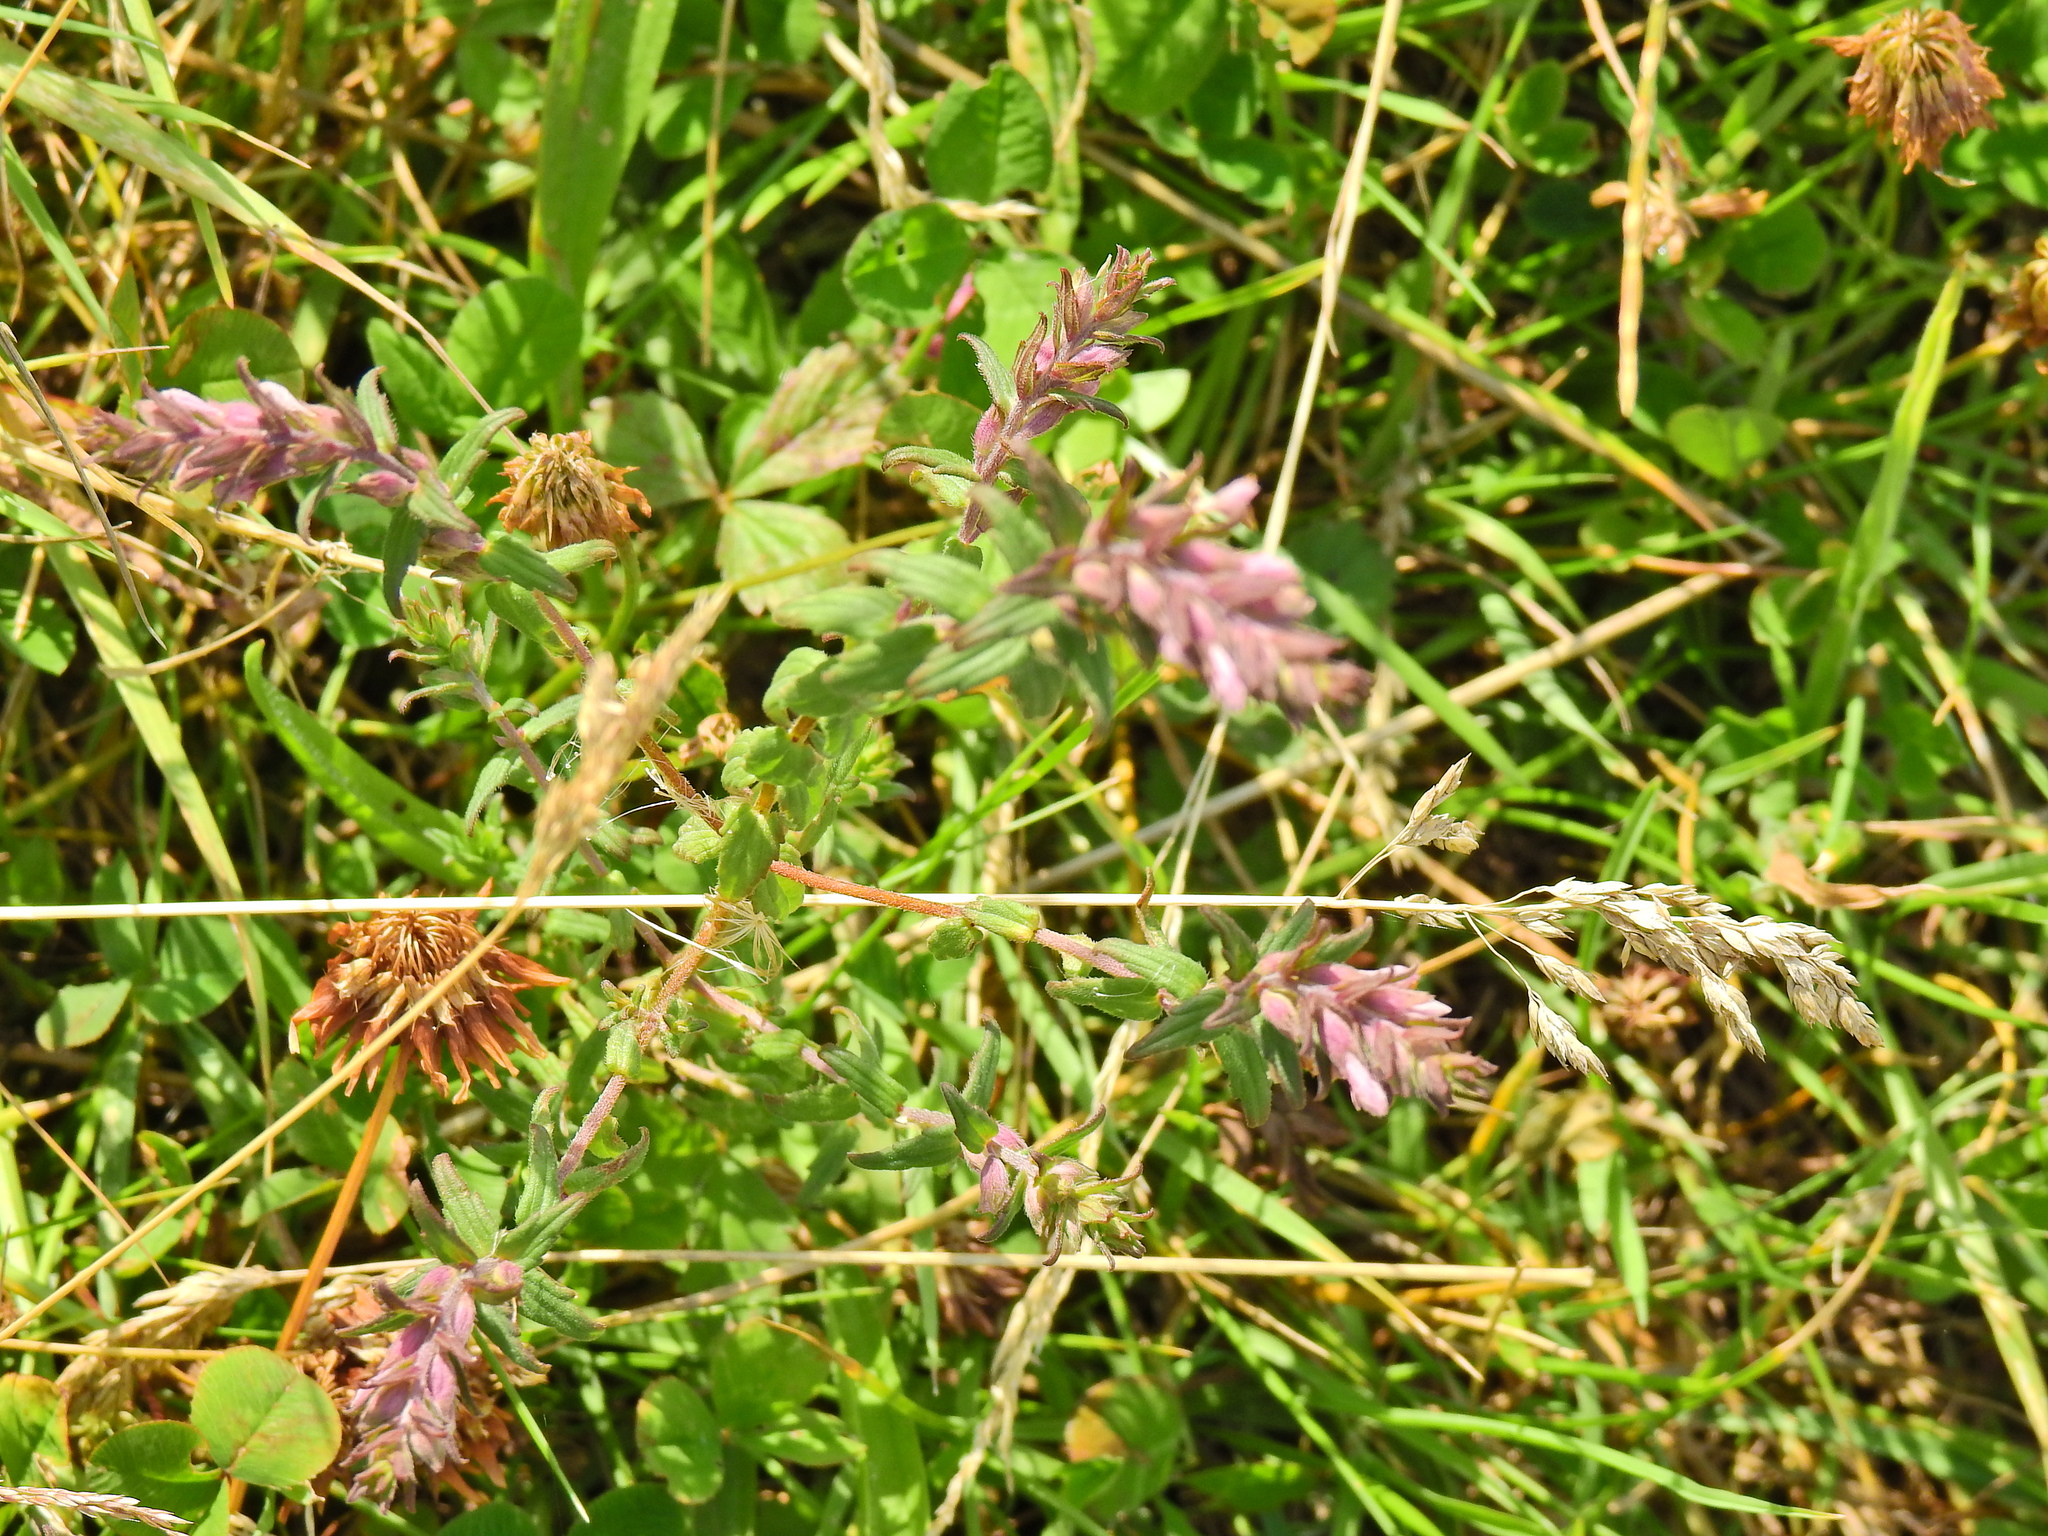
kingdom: Plantae
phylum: Tracheophyta
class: Magnoliopsida
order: Lamiales
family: Orobanchaceae
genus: Odontites
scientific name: Odontites vernus
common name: Red bartsia
